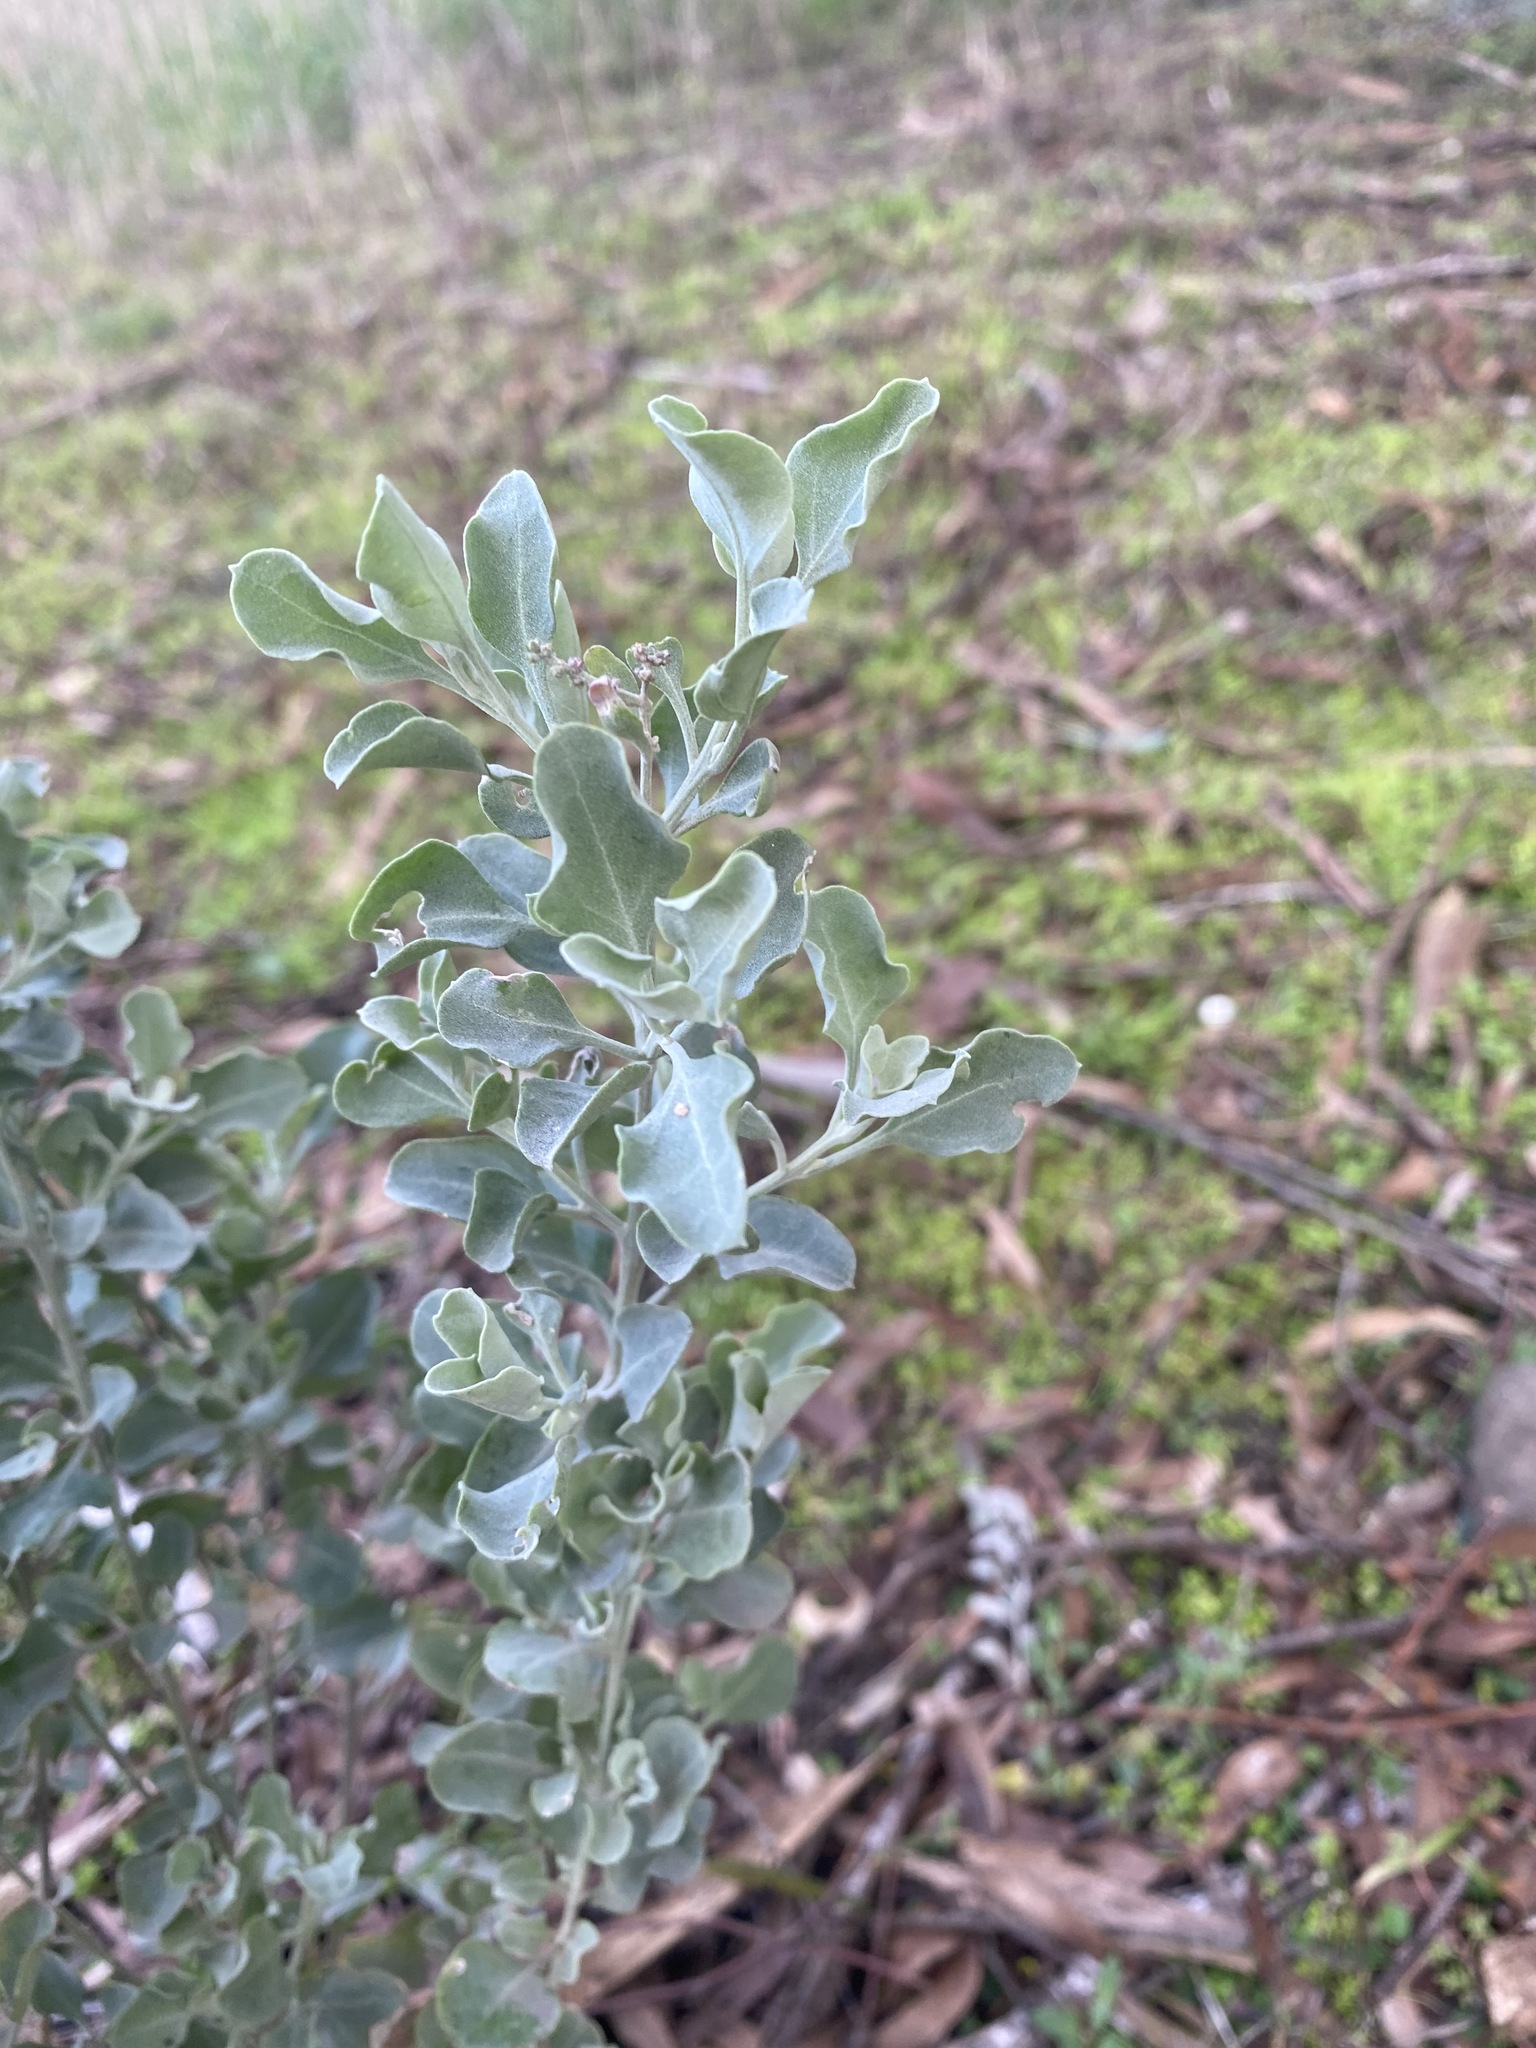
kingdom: Plantae
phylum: Tracheophyta
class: Magnoliopsida
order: Caryophyllales
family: Amaranthaceae
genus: Chenopodium
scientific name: Chenopodium parabolicum
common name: Old-man-saltbush
